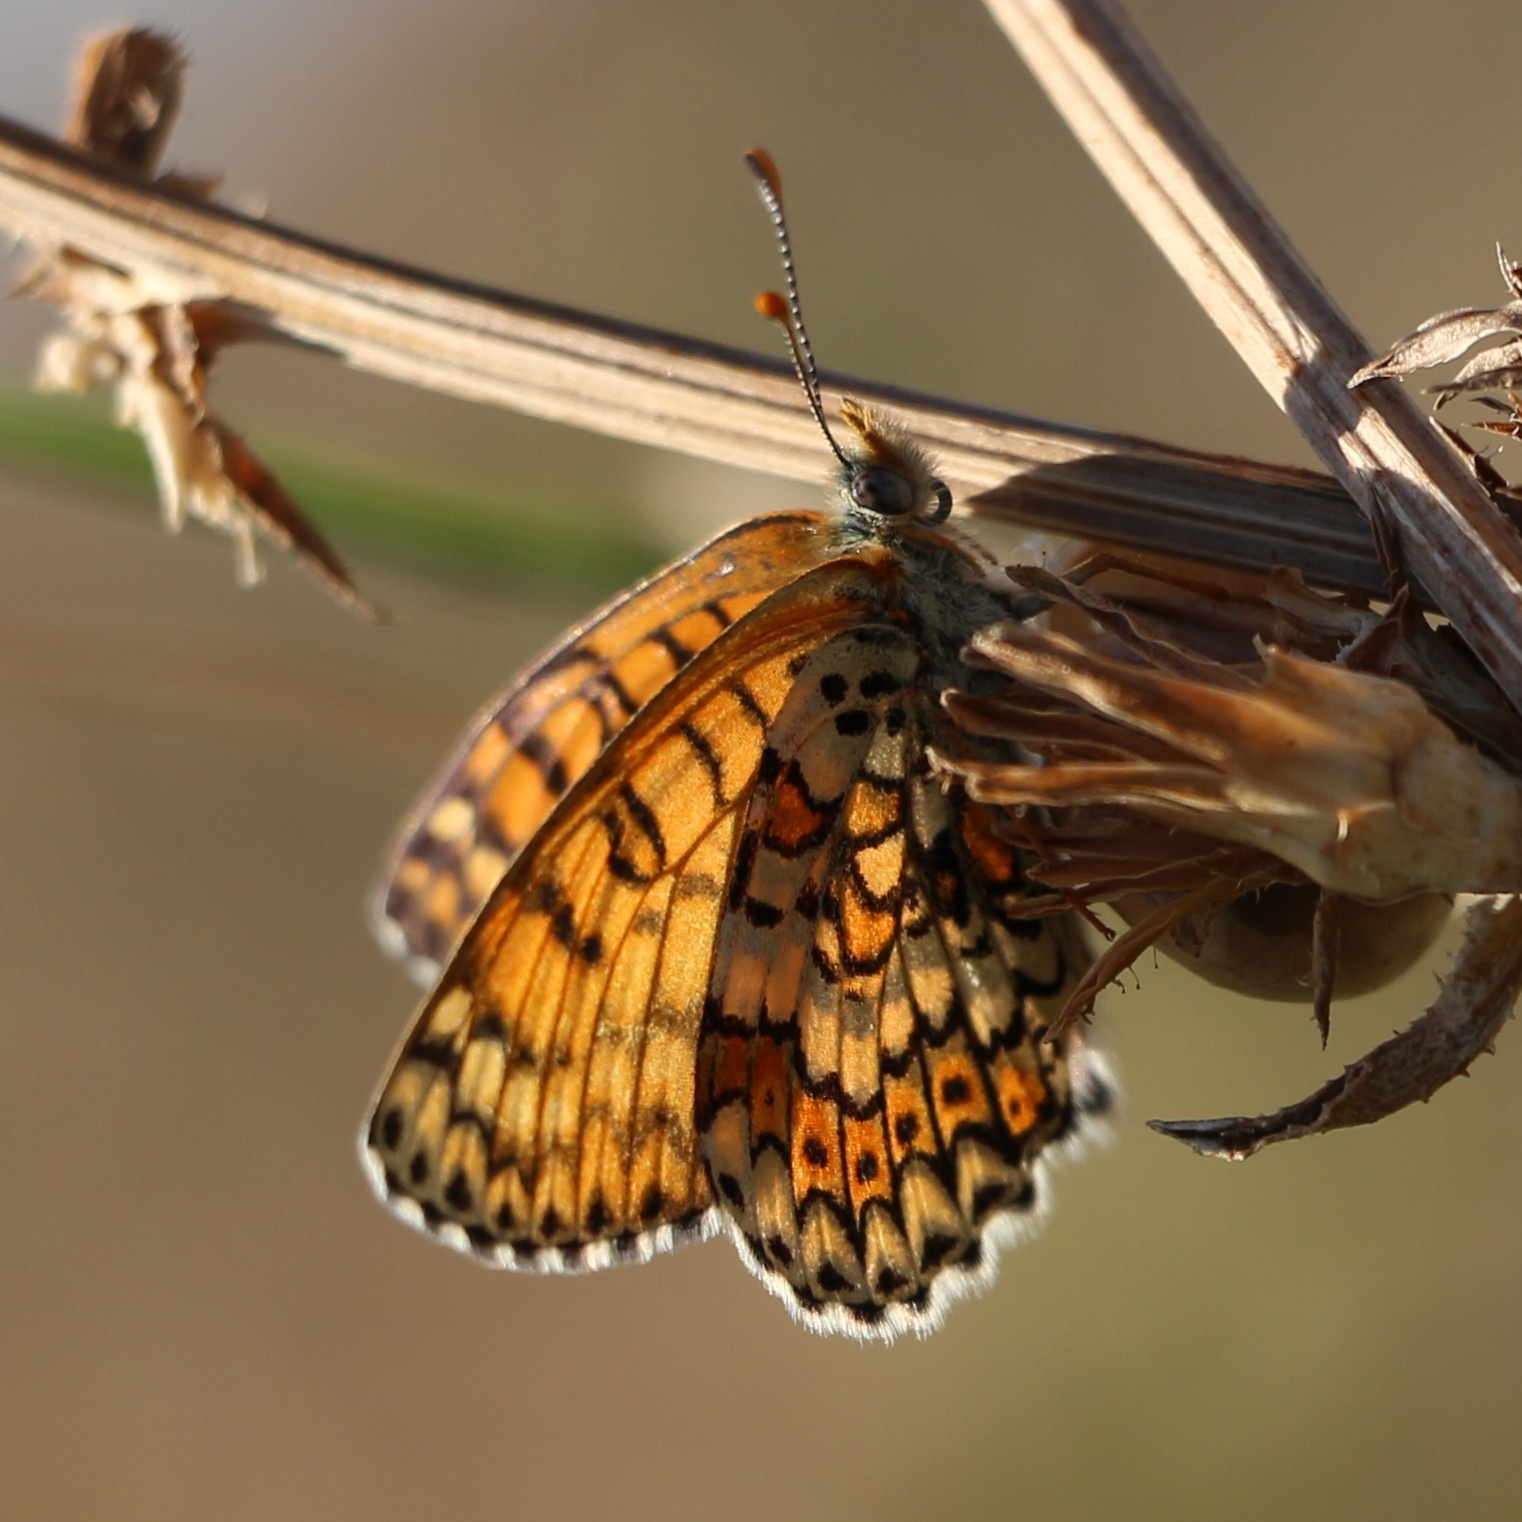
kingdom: Animalia
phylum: Arthropoda
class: Insecta
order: Lepidoptera
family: Nymphalidae
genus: Melitaea
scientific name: Melitaea cinxia
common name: Glanville fritillary
